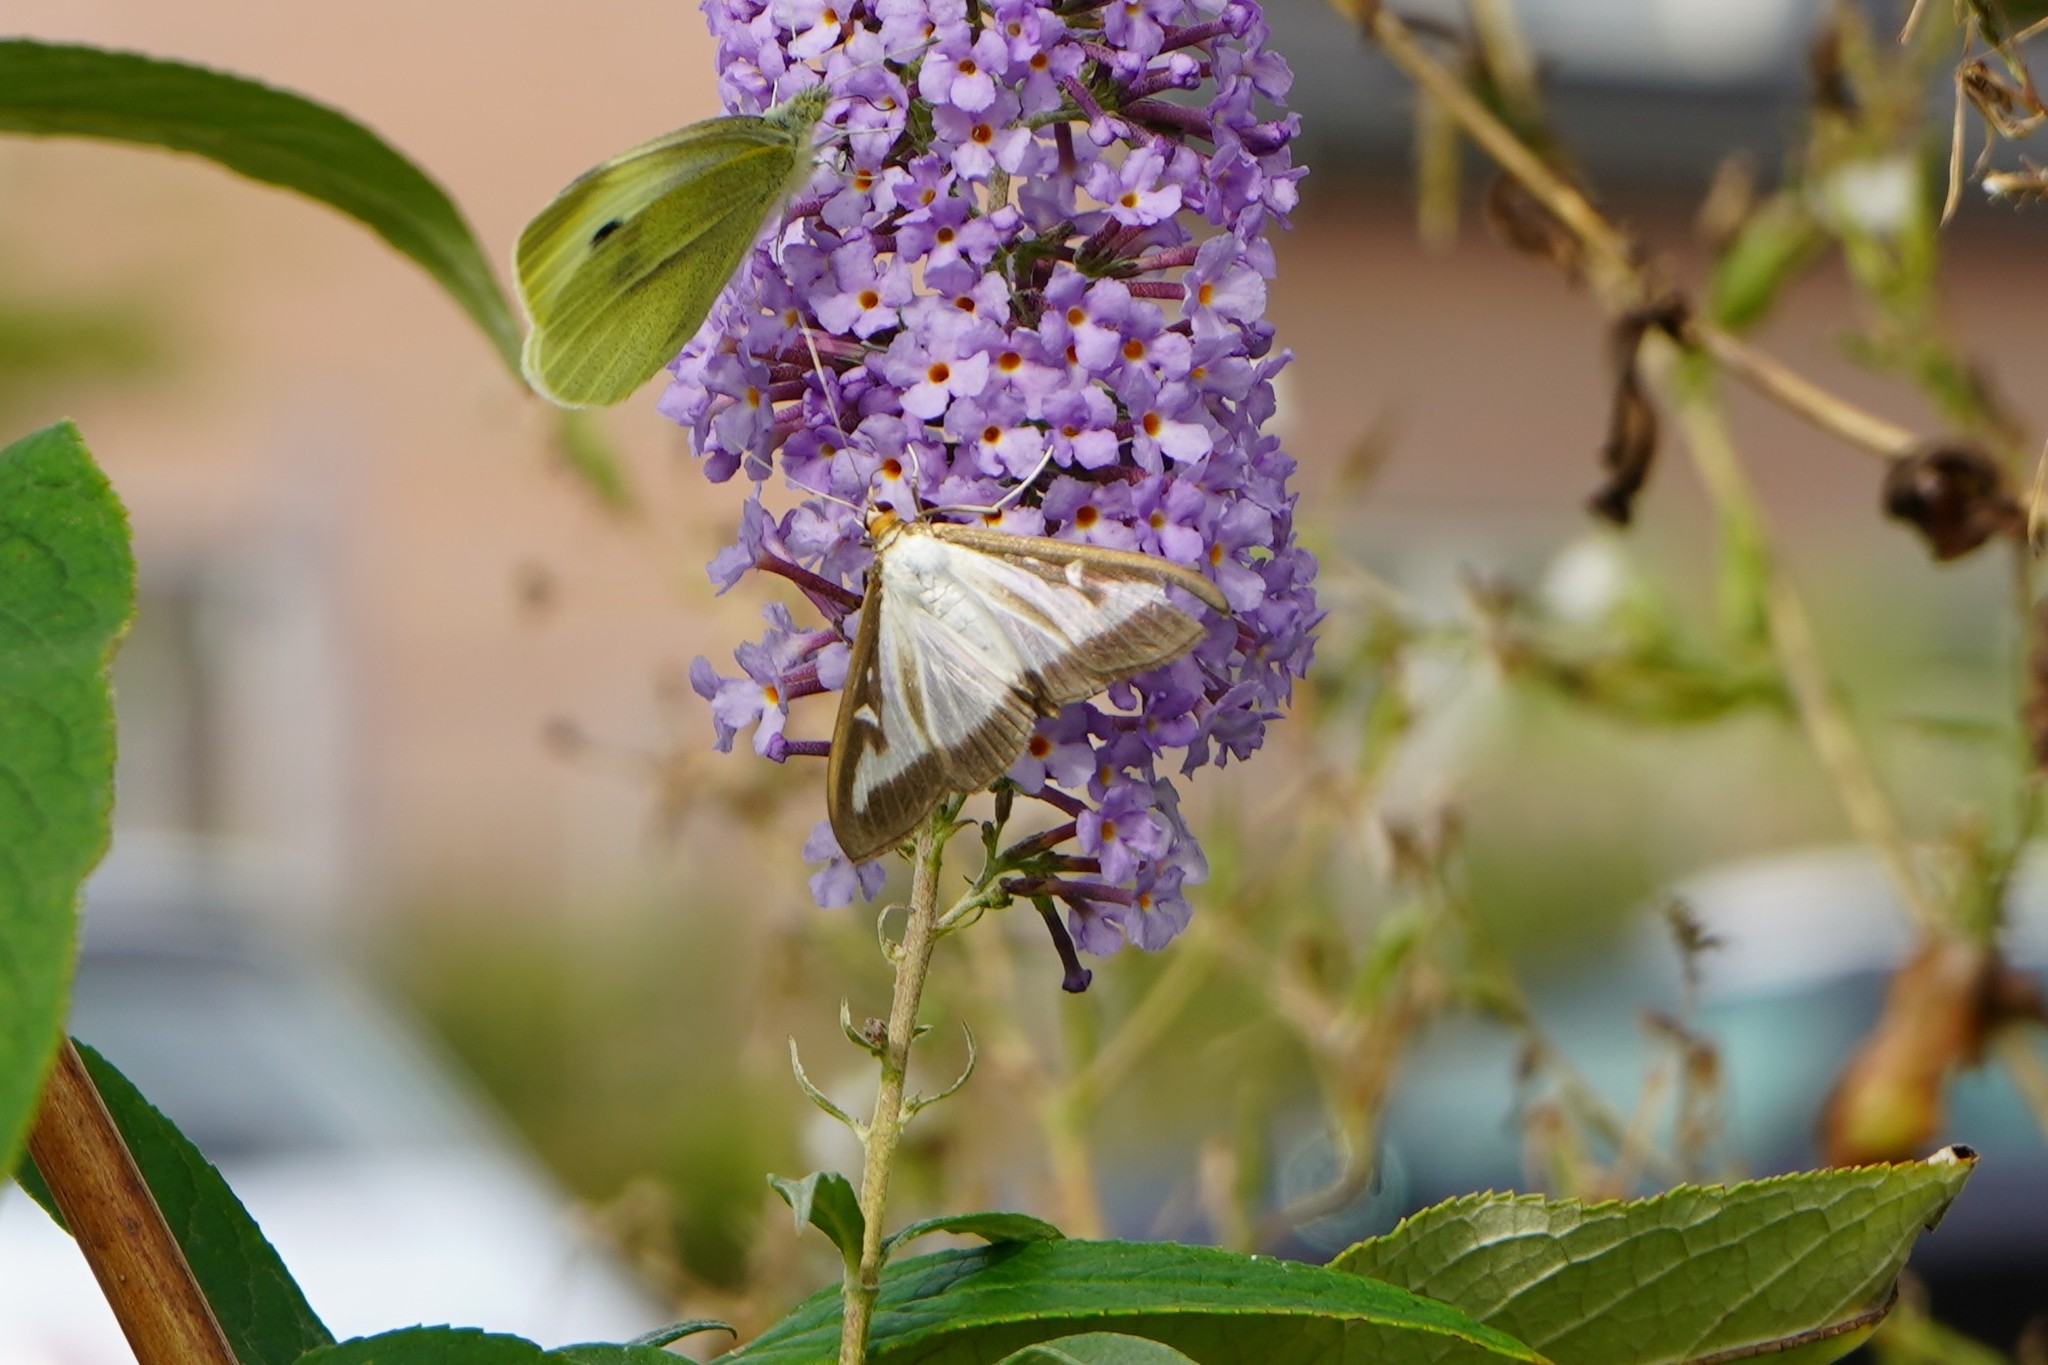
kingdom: Animalia
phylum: Arthropoda
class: Insecta
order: Lepidoptera
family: Crambidae
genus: Cydalima
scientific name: Cydalima perspectalis
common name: Box tree moth
